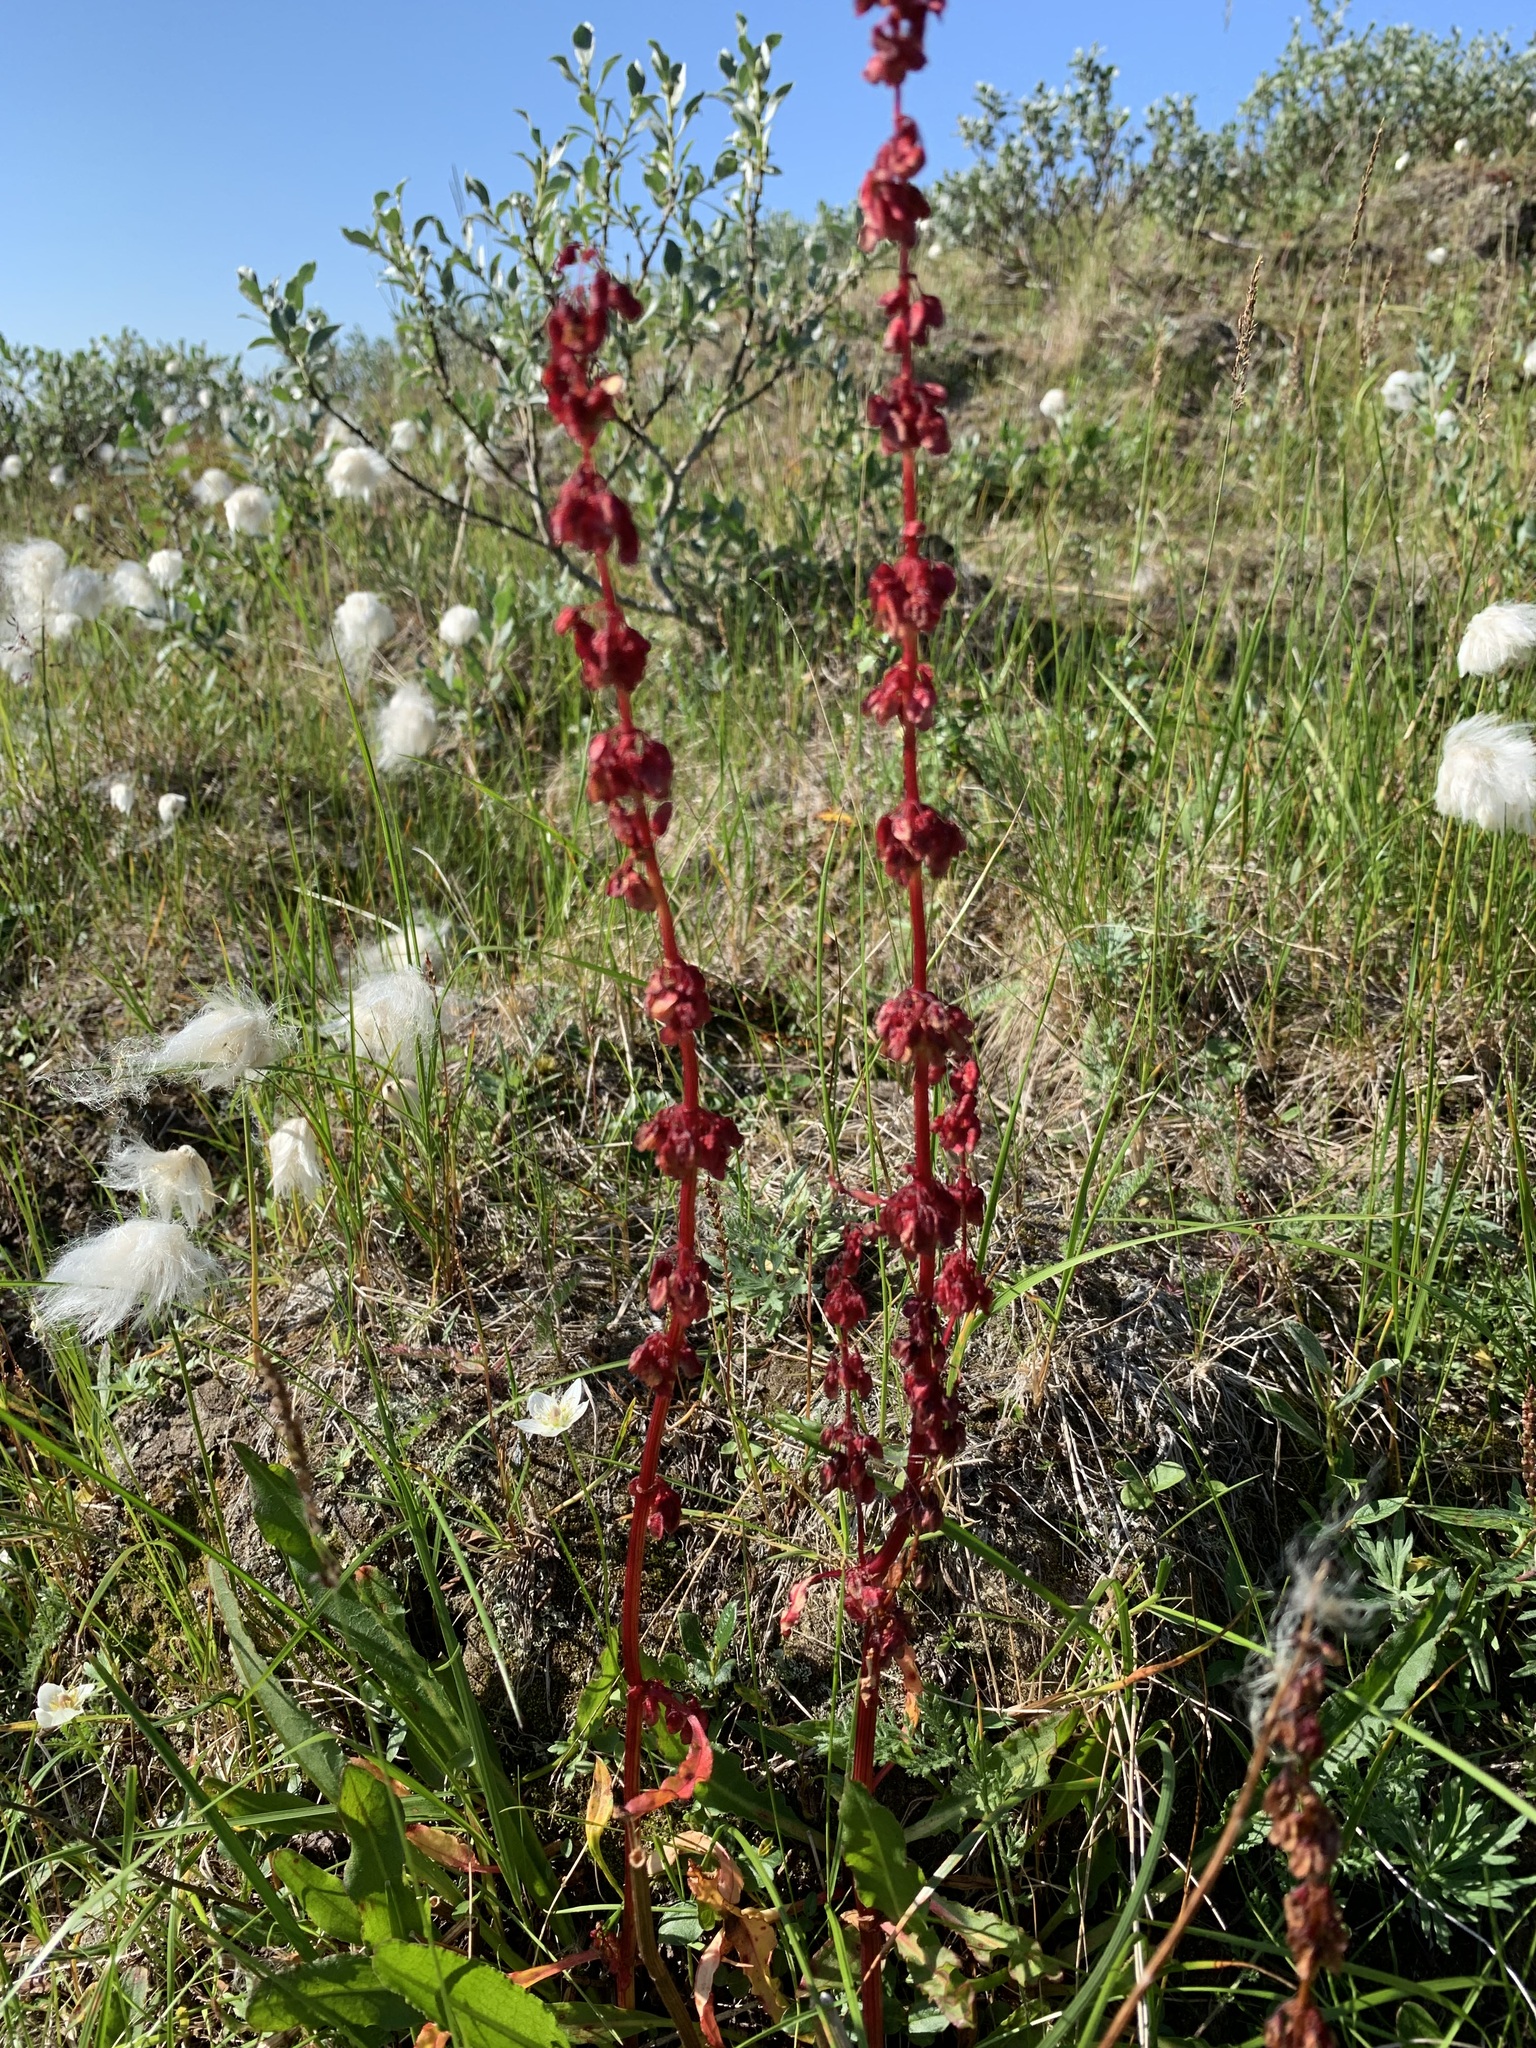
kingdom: Plantae
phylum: Tracheophyta
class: Magnoliopsida
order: Caryophyllales
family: Polygonaceae
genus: Rumex
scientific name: Rumex arcticus
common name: Arctic dock
